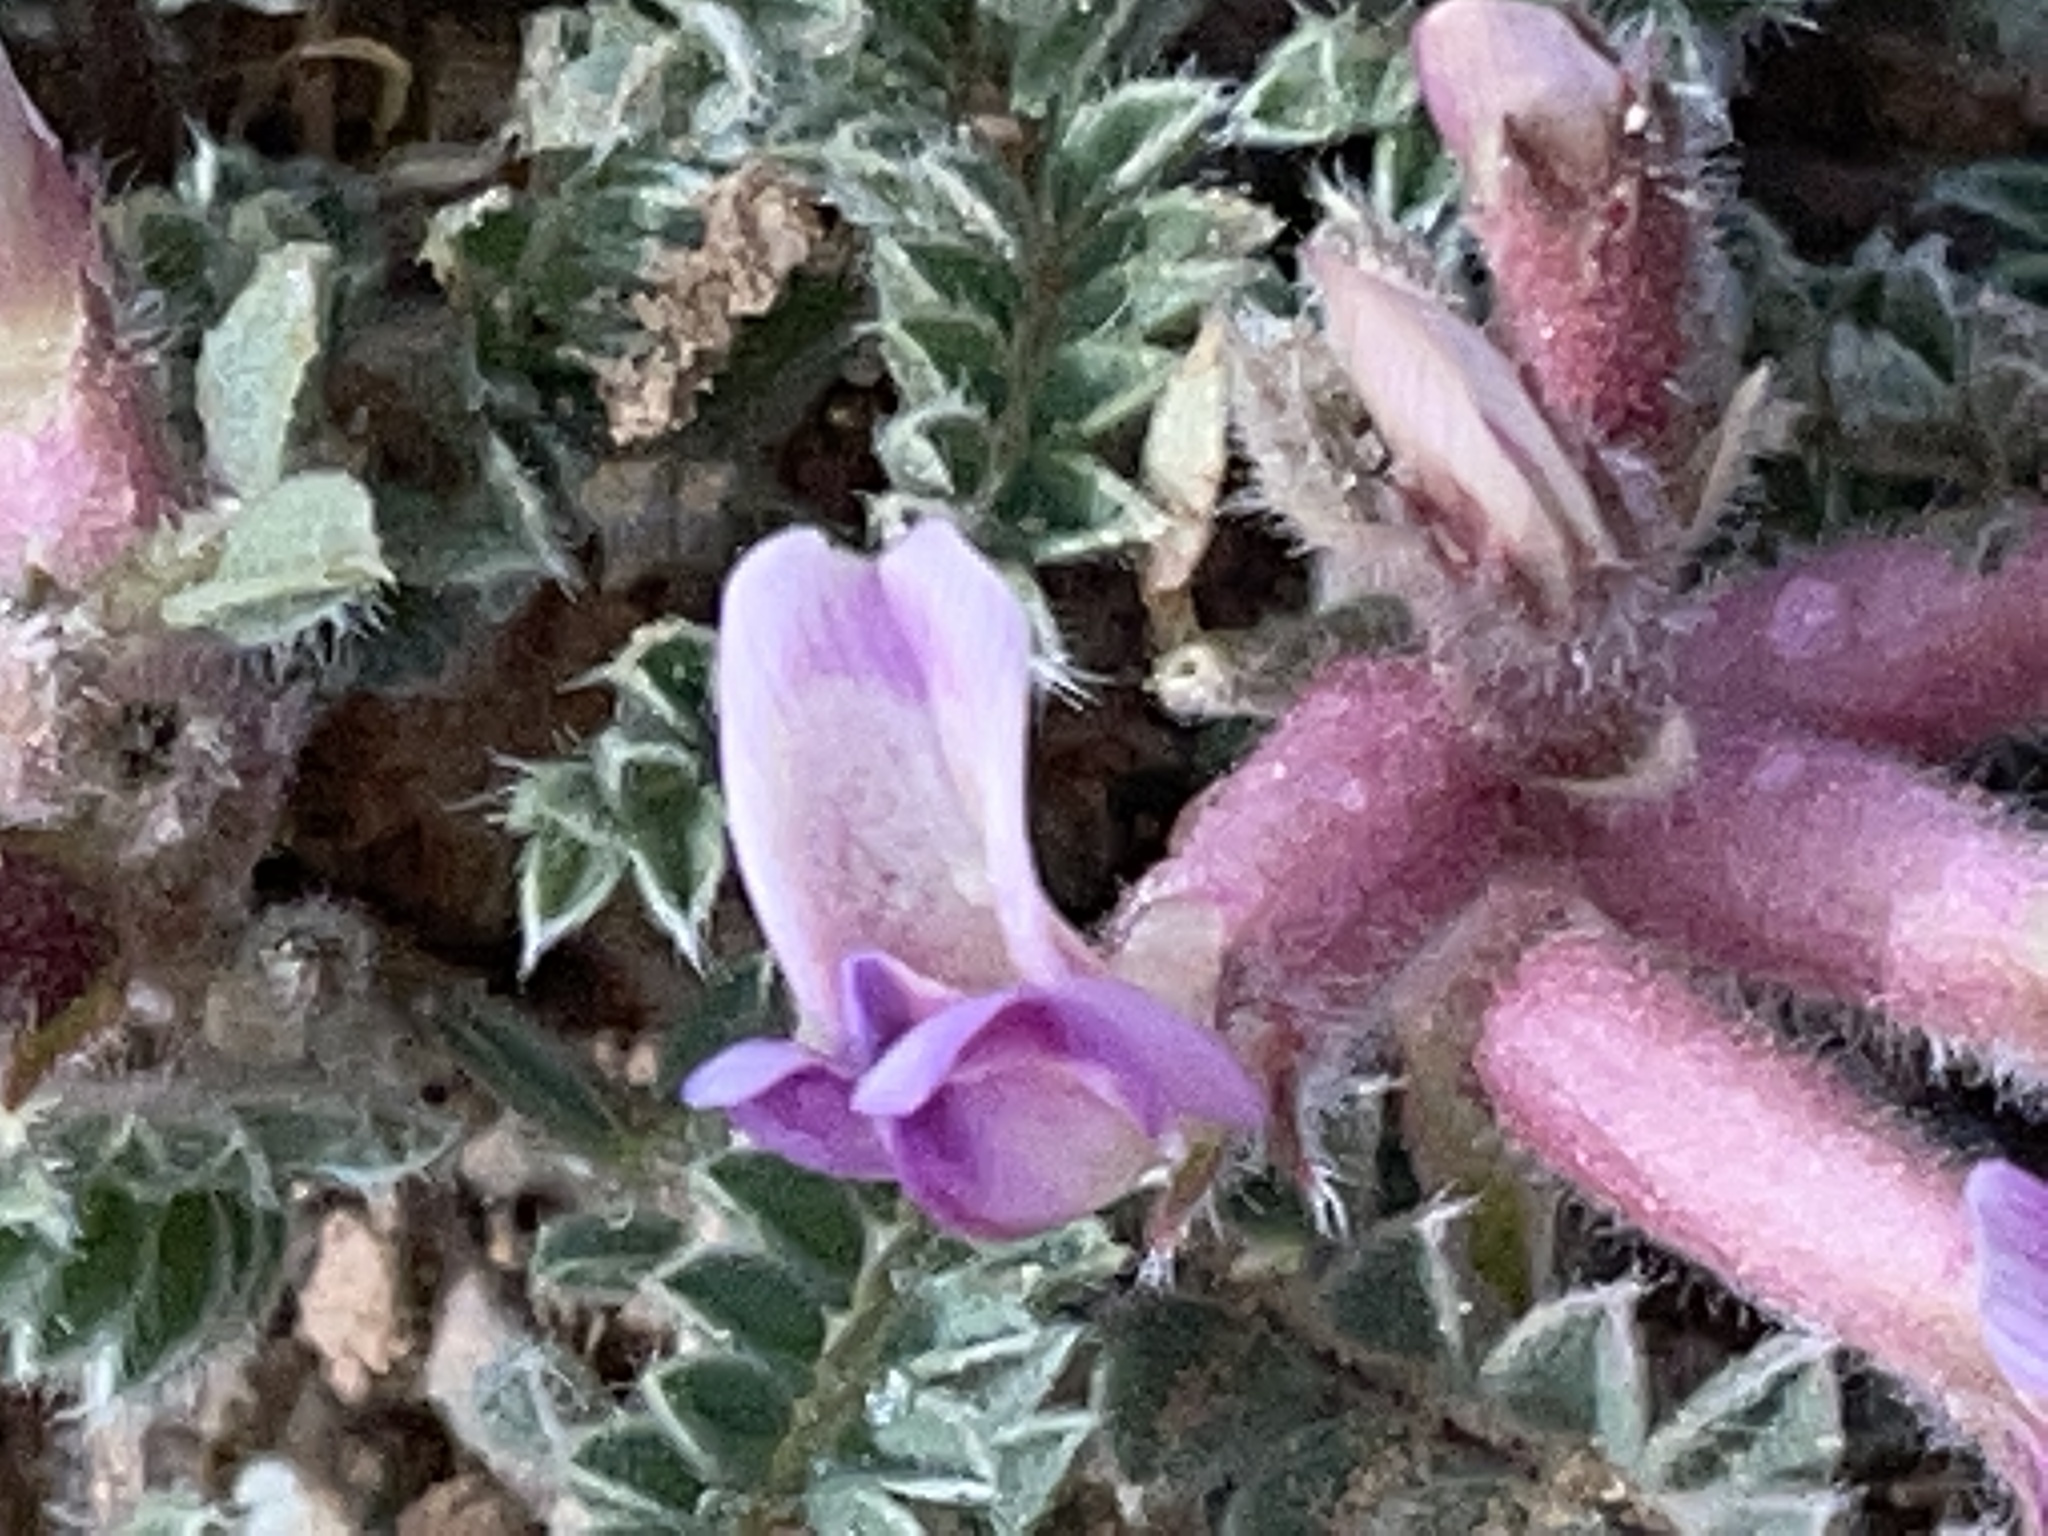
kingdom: Plantae
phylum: Tracheophyta
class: Magnoliopsida
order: Fabales
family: Fabaceae
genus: Astragalus
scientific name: Astragalus mollissimus
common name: Woolly locoweed
